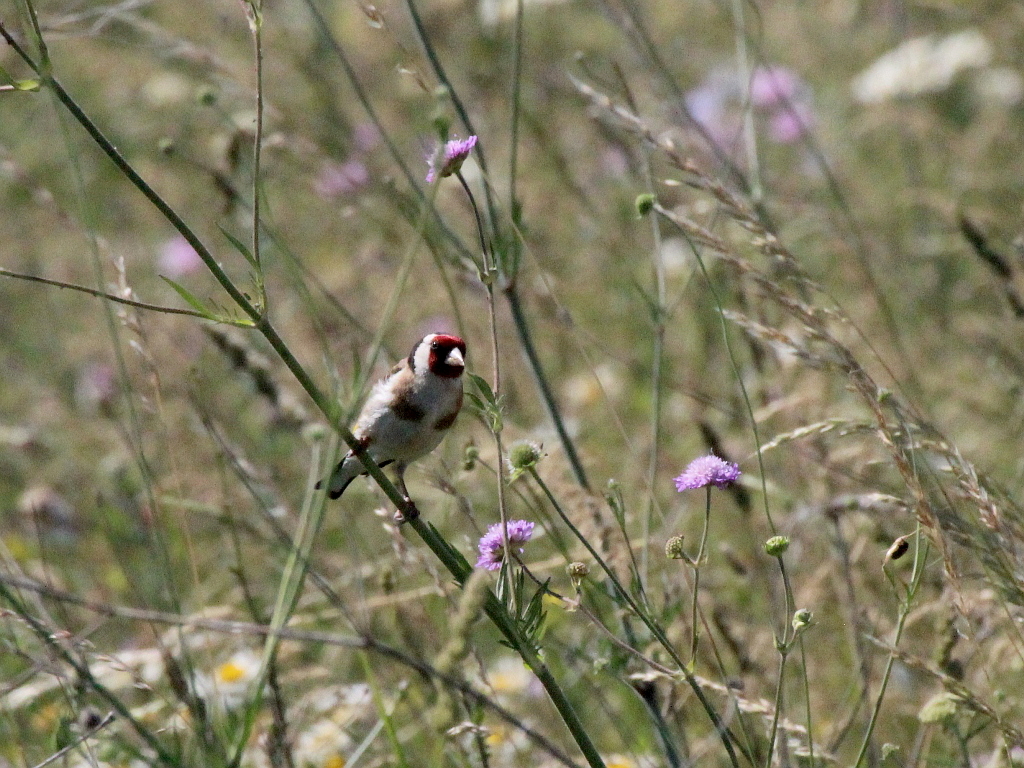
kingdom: Animalia
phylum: Chordata
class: Aves
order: Passeriformes
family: Fringillidae
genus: Carduelis
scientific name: Carduelis carduelis
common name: European goldfinch
